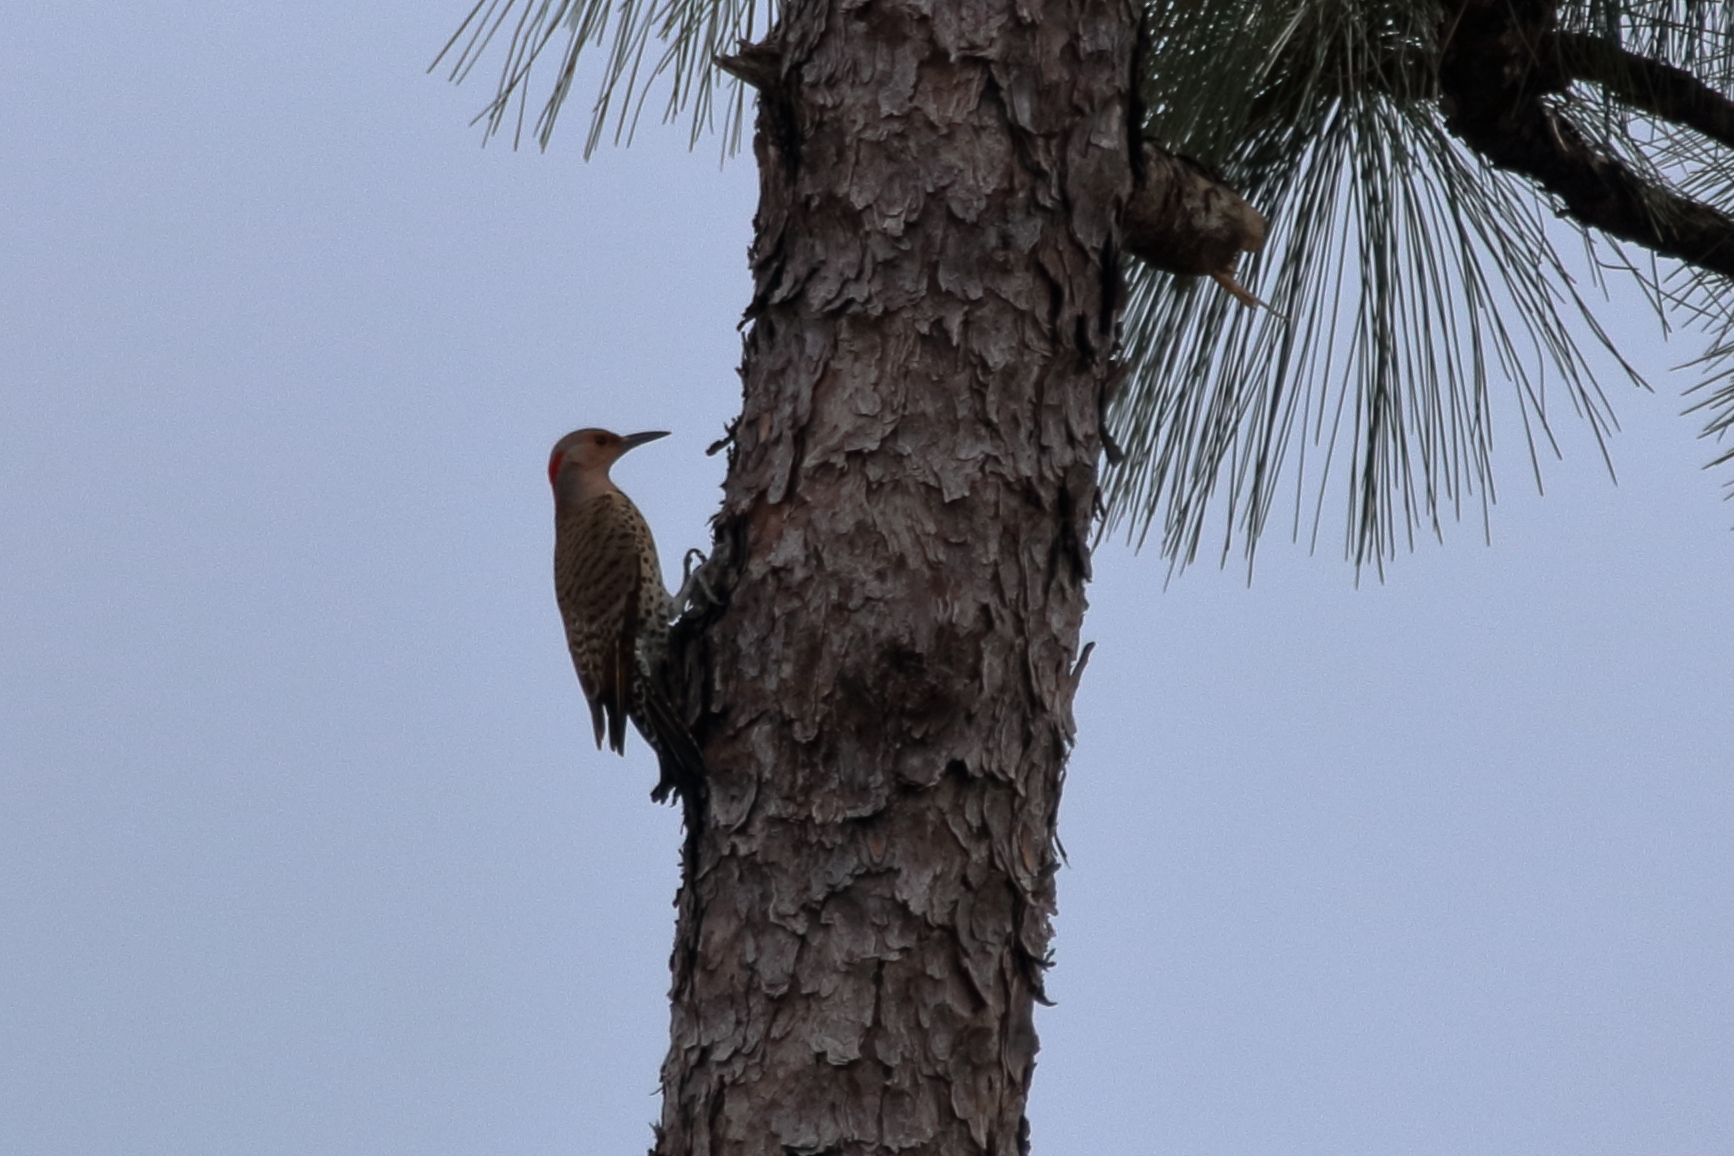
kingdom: Animalia
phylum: Chordata
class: Aves
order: Piciformes
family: Picidae
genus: Colaptes
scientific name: Colaptes auratus
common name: Northern flicker
